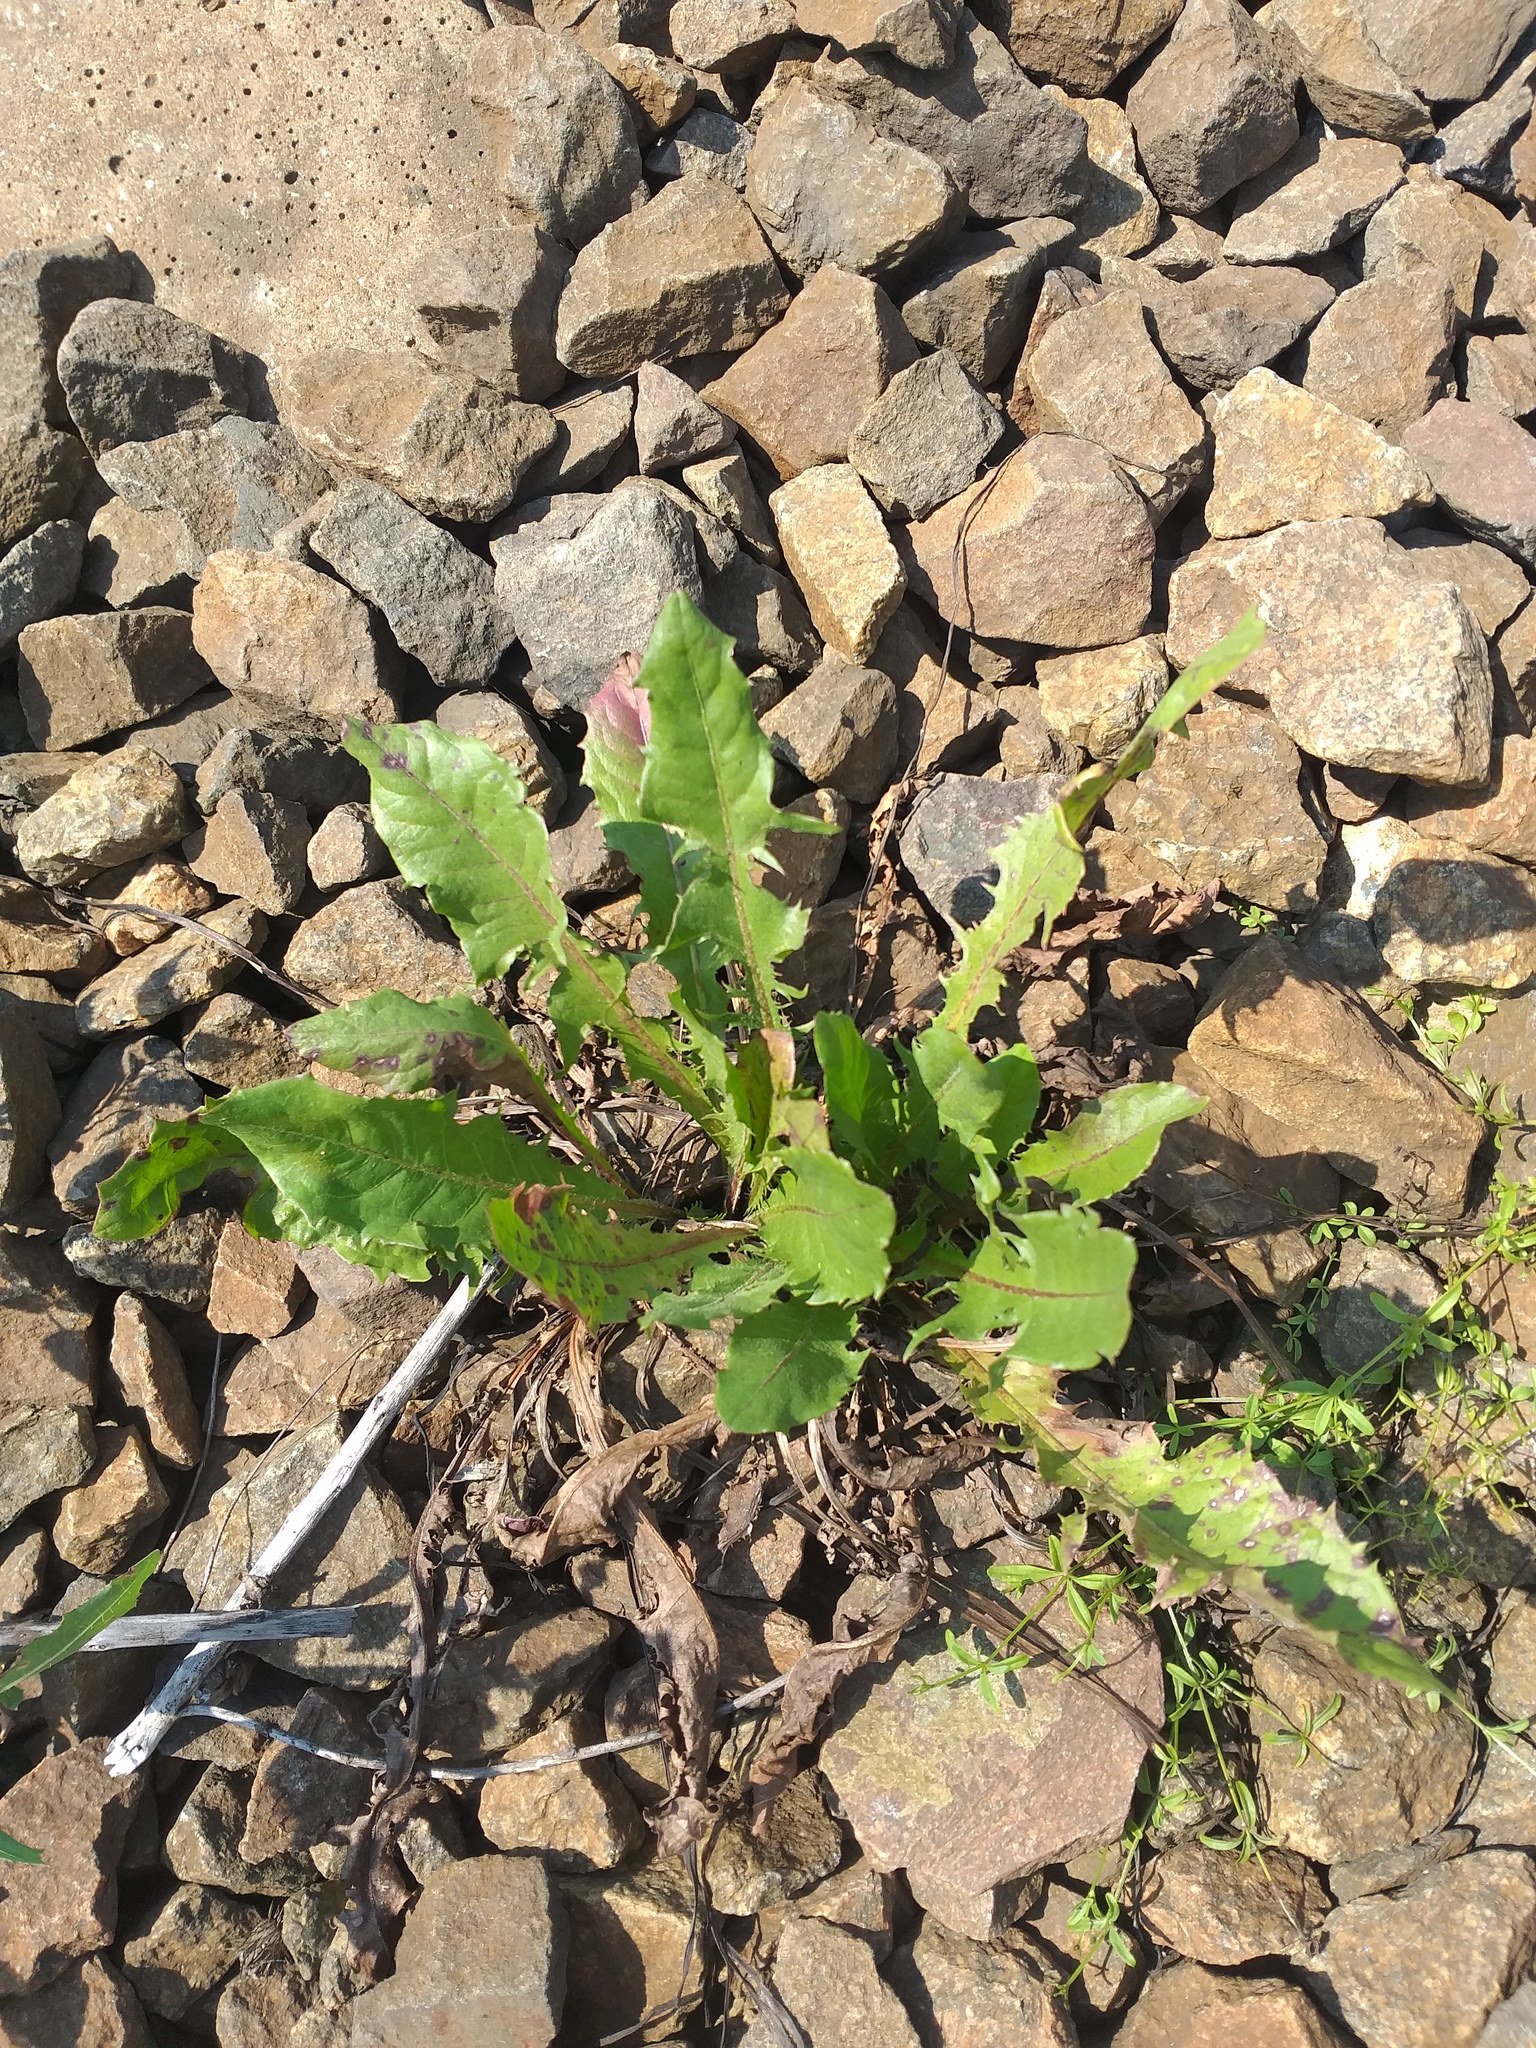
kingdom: Plantae
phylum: Tracheophyta
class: Magnoliopsida
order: Asterales
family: Asteraceae
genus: Taraxacum
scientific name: Taraxacum officinale
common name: Common dandelion
